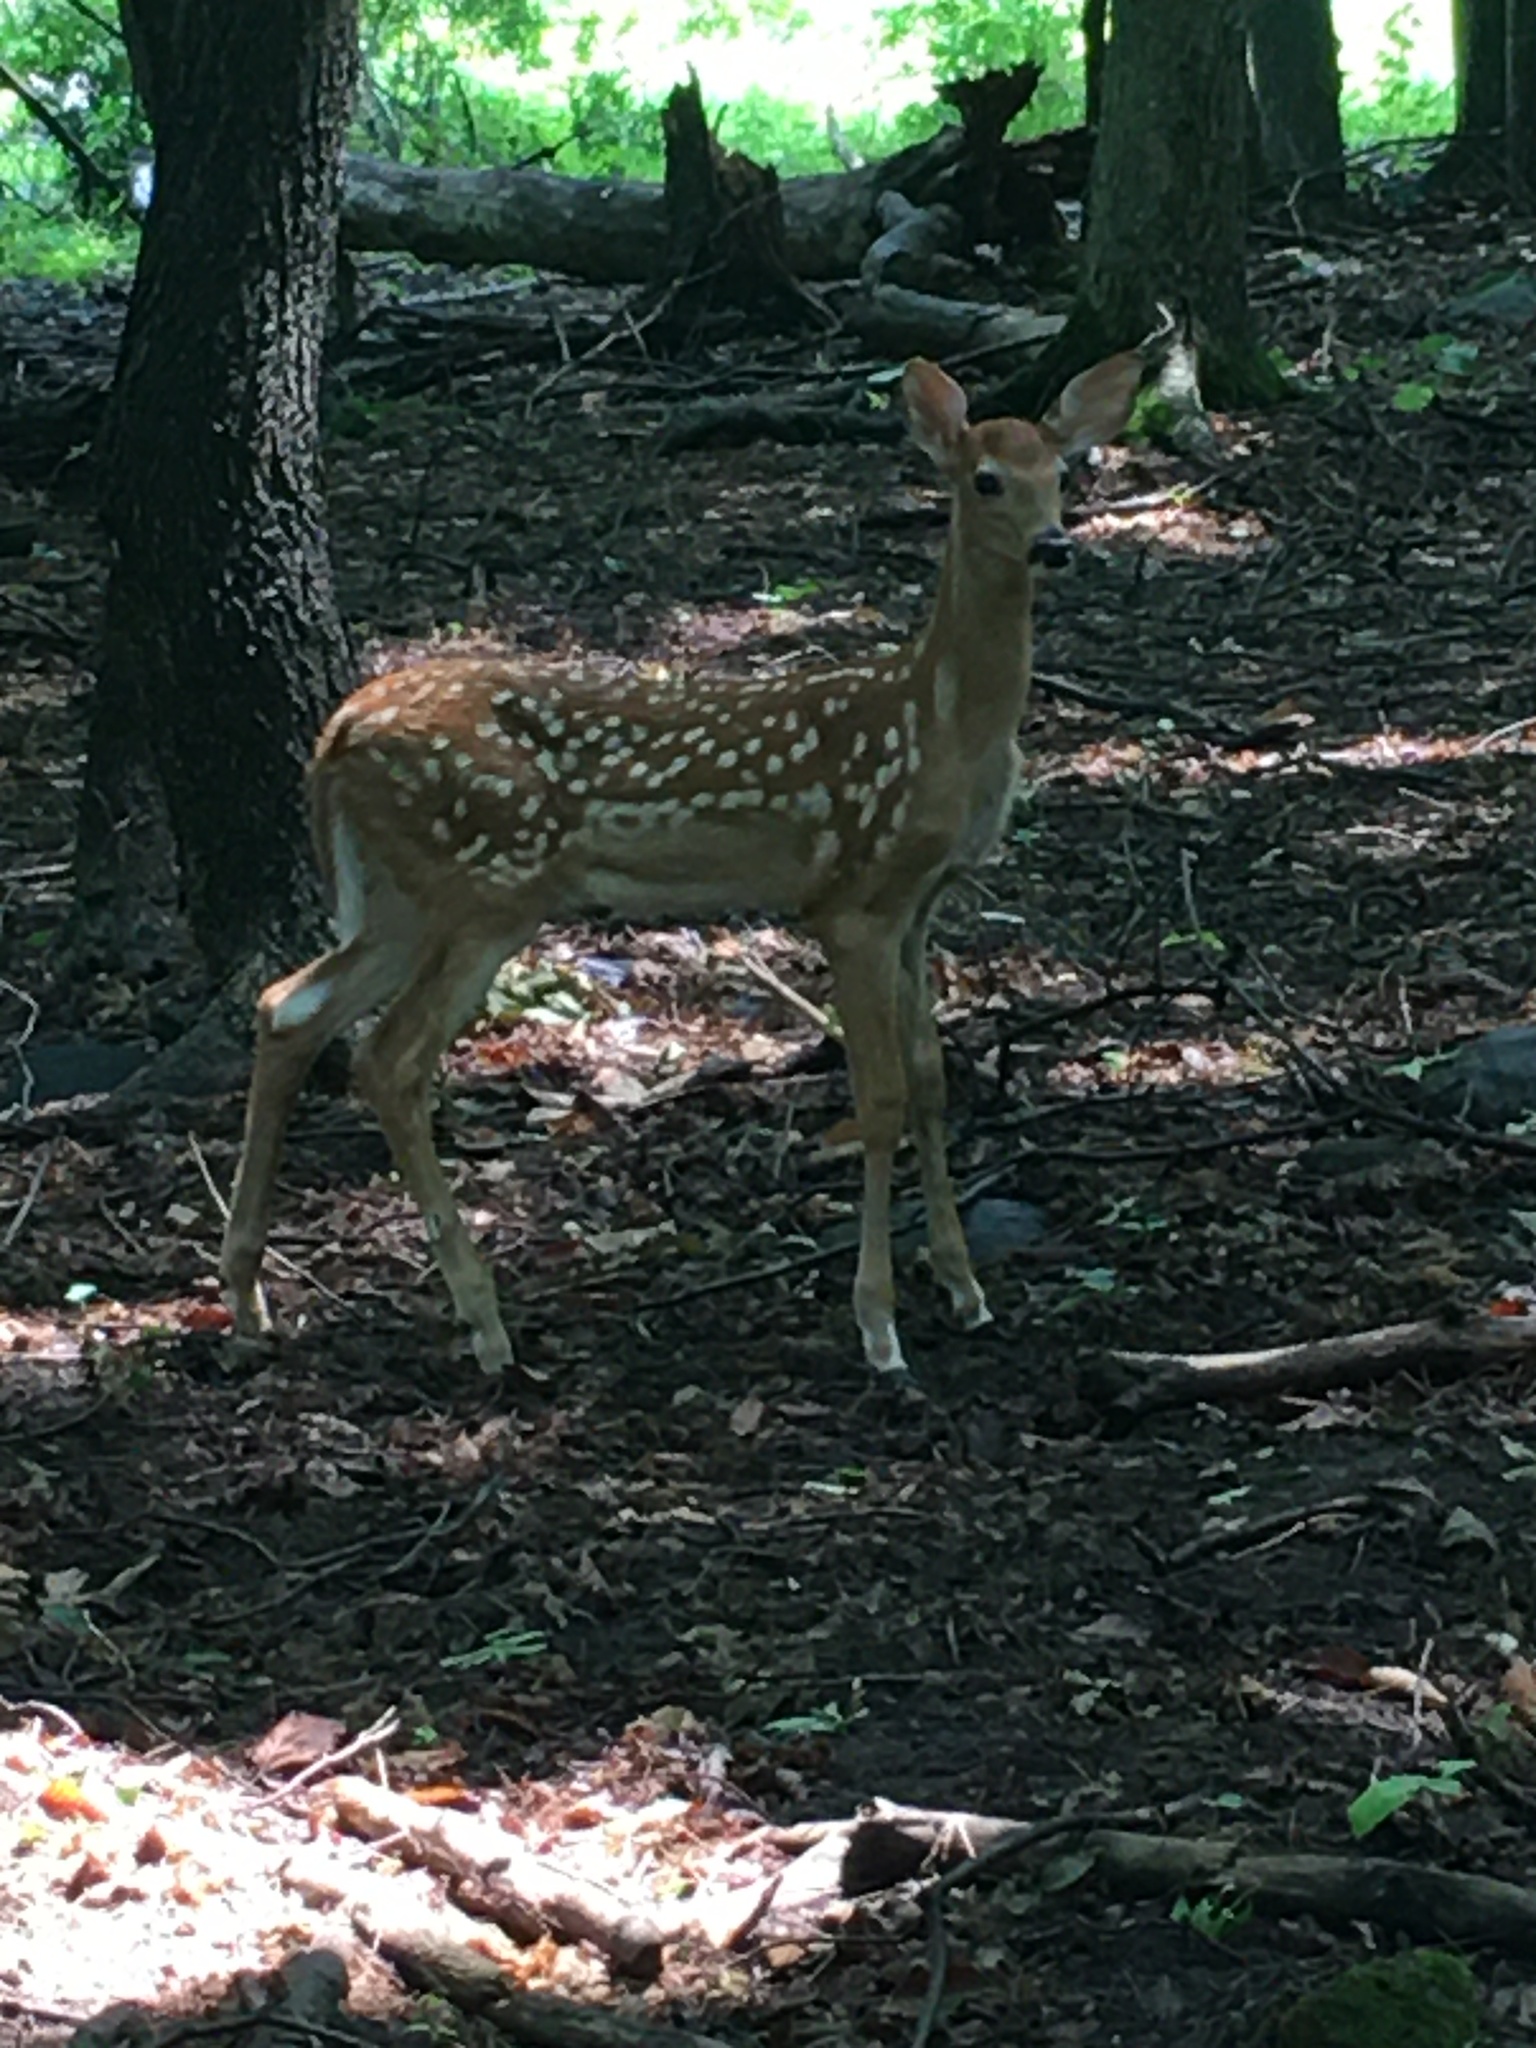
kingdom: Animalia
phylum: Chordata
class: Mammalia
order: Artiodactyla
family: Cervidae
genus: Odocoileus
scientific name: Odocoileus virginianus
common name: White-tailed deer
